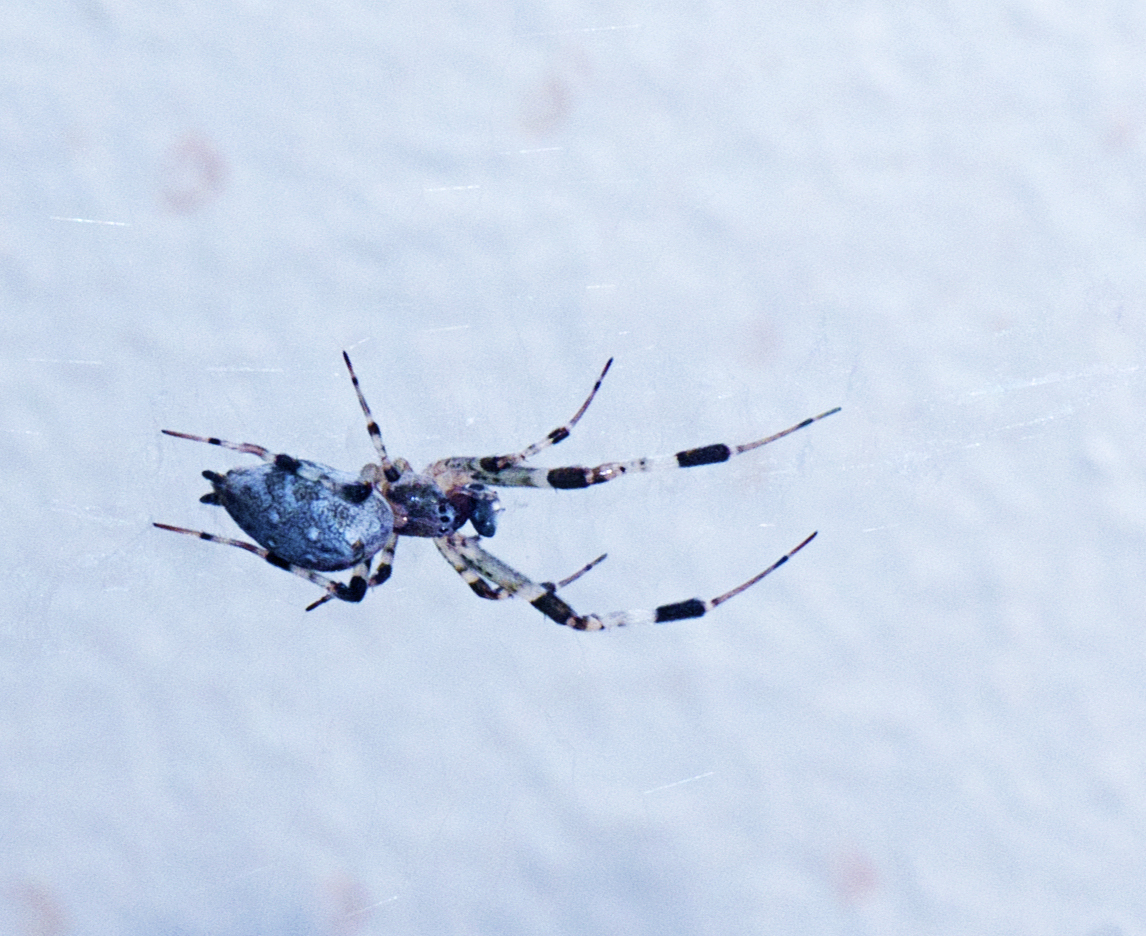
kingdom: Animalia
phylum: Arthropoda
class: Arachnida
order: Araneae
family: Uloboridae
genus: Zosis
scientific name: Zosis geniculata
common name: Hackled orb weavers
